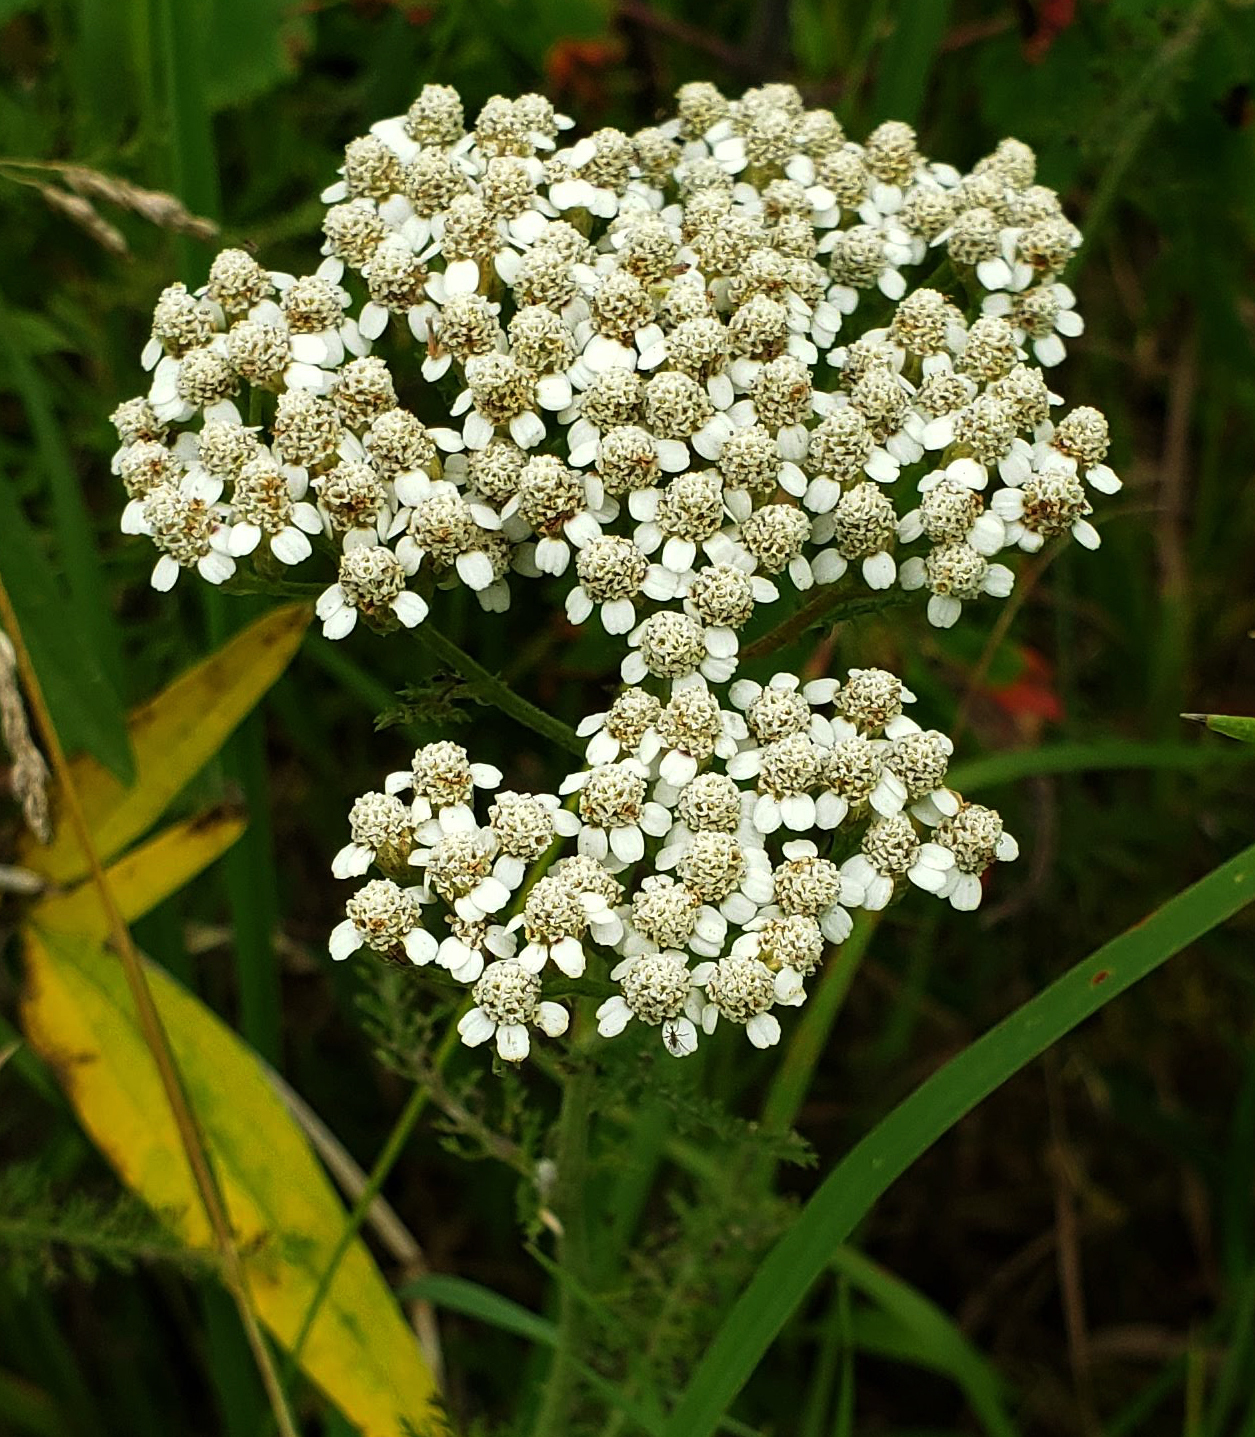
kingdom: Plantae
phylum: Tracheophyta
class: Magnoliopsida
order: Asterales
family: Asteraceae
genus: Achillea
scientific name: Achillea millefolium
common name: Yarrow
